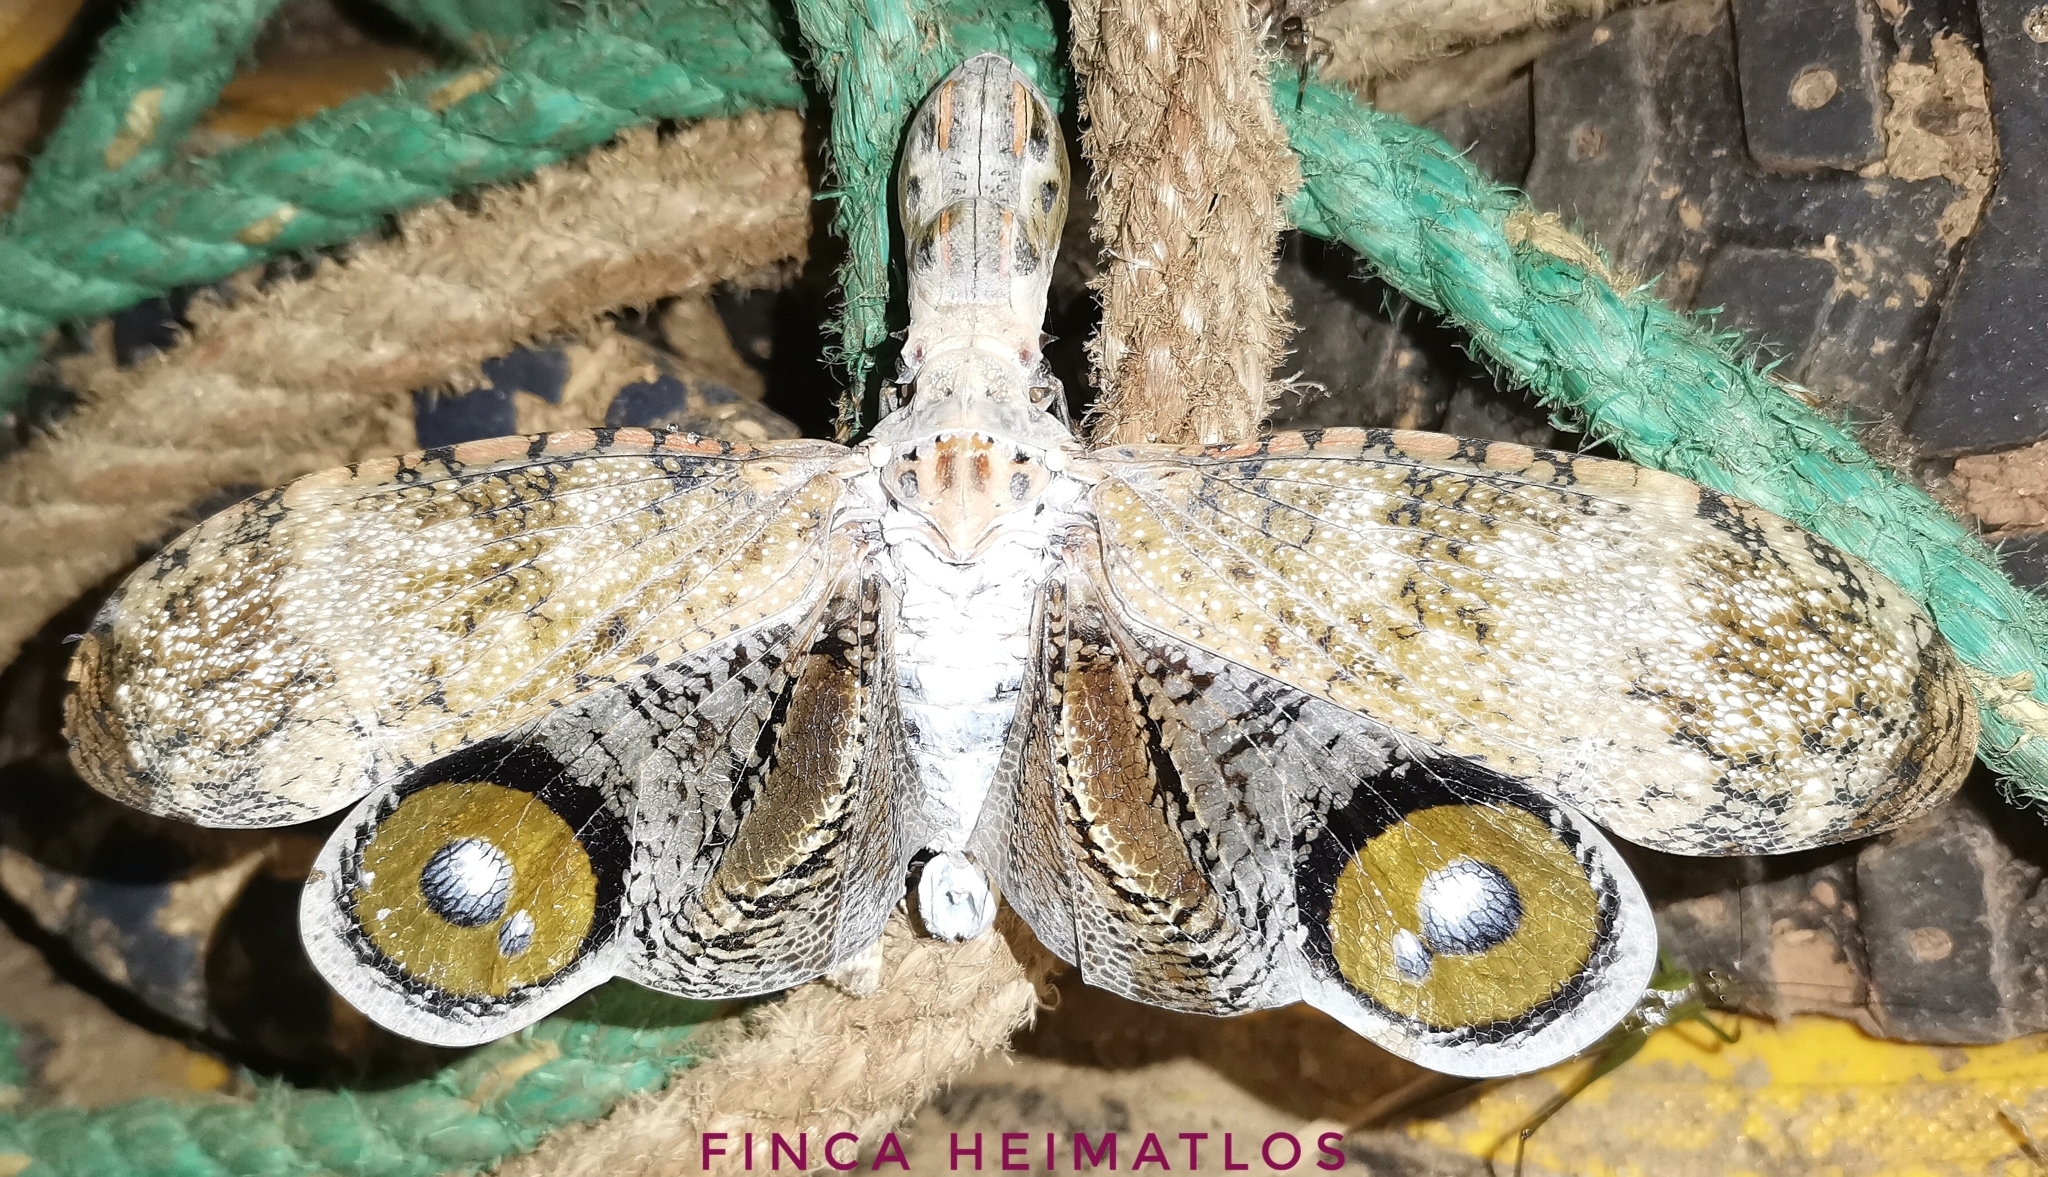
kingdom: Animalia
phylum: Arthropoda
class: Insecta
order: Hemiptera
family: Fulgoridae
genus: Fulgora
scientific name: Fulgora laternaria
